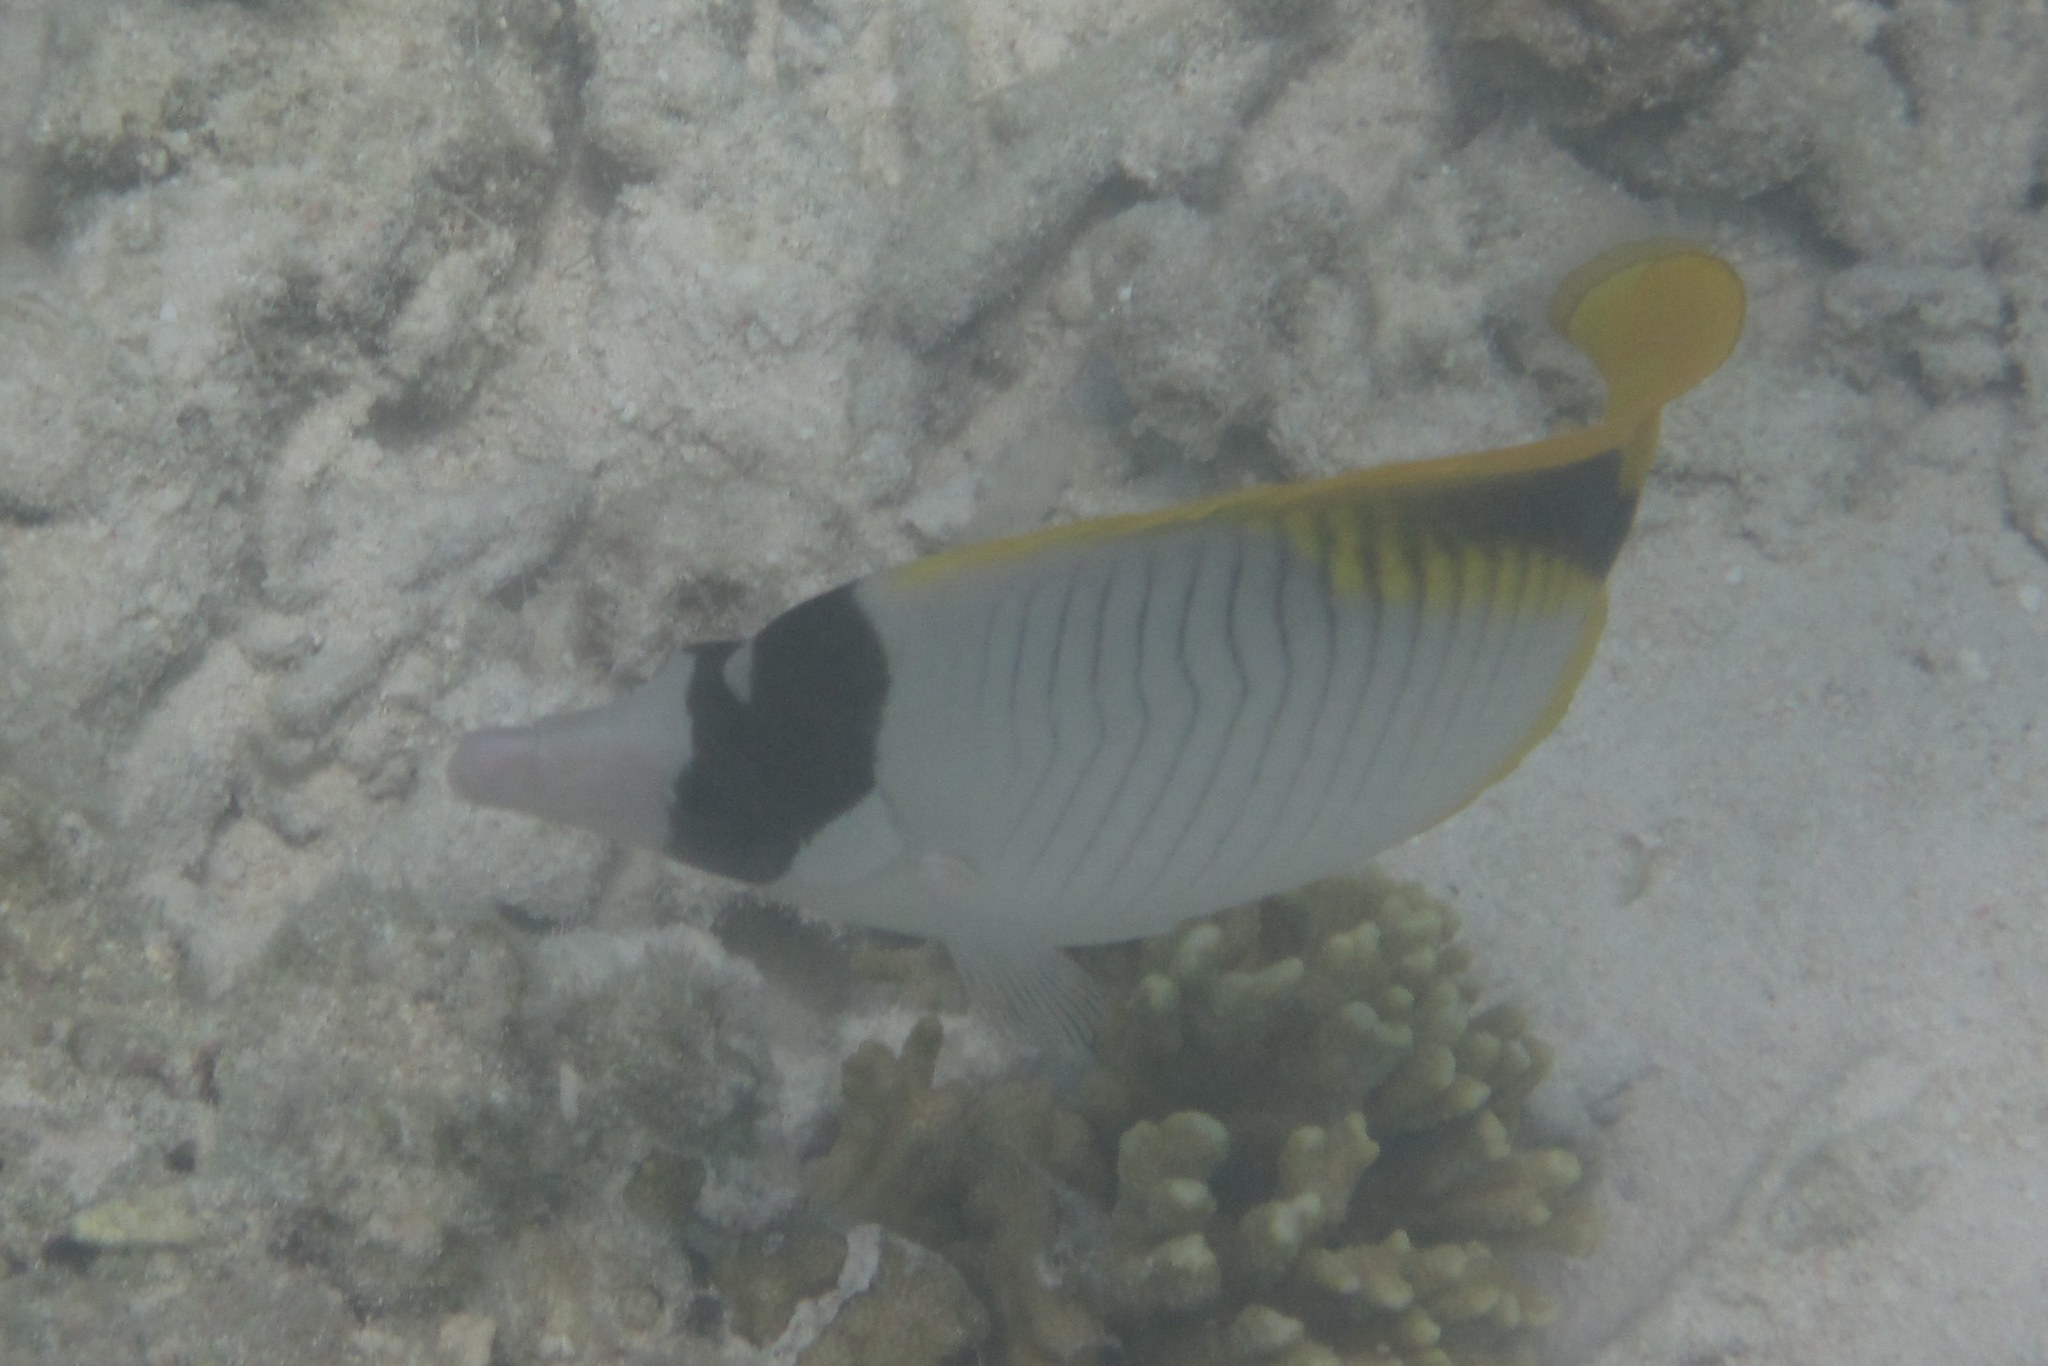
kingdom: Animalia
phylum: Chordata
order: Perciformes
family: Chaetodontidae
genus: Chaetodon
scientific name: Chaetodon lineolatus
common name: Lined butterflyfish
